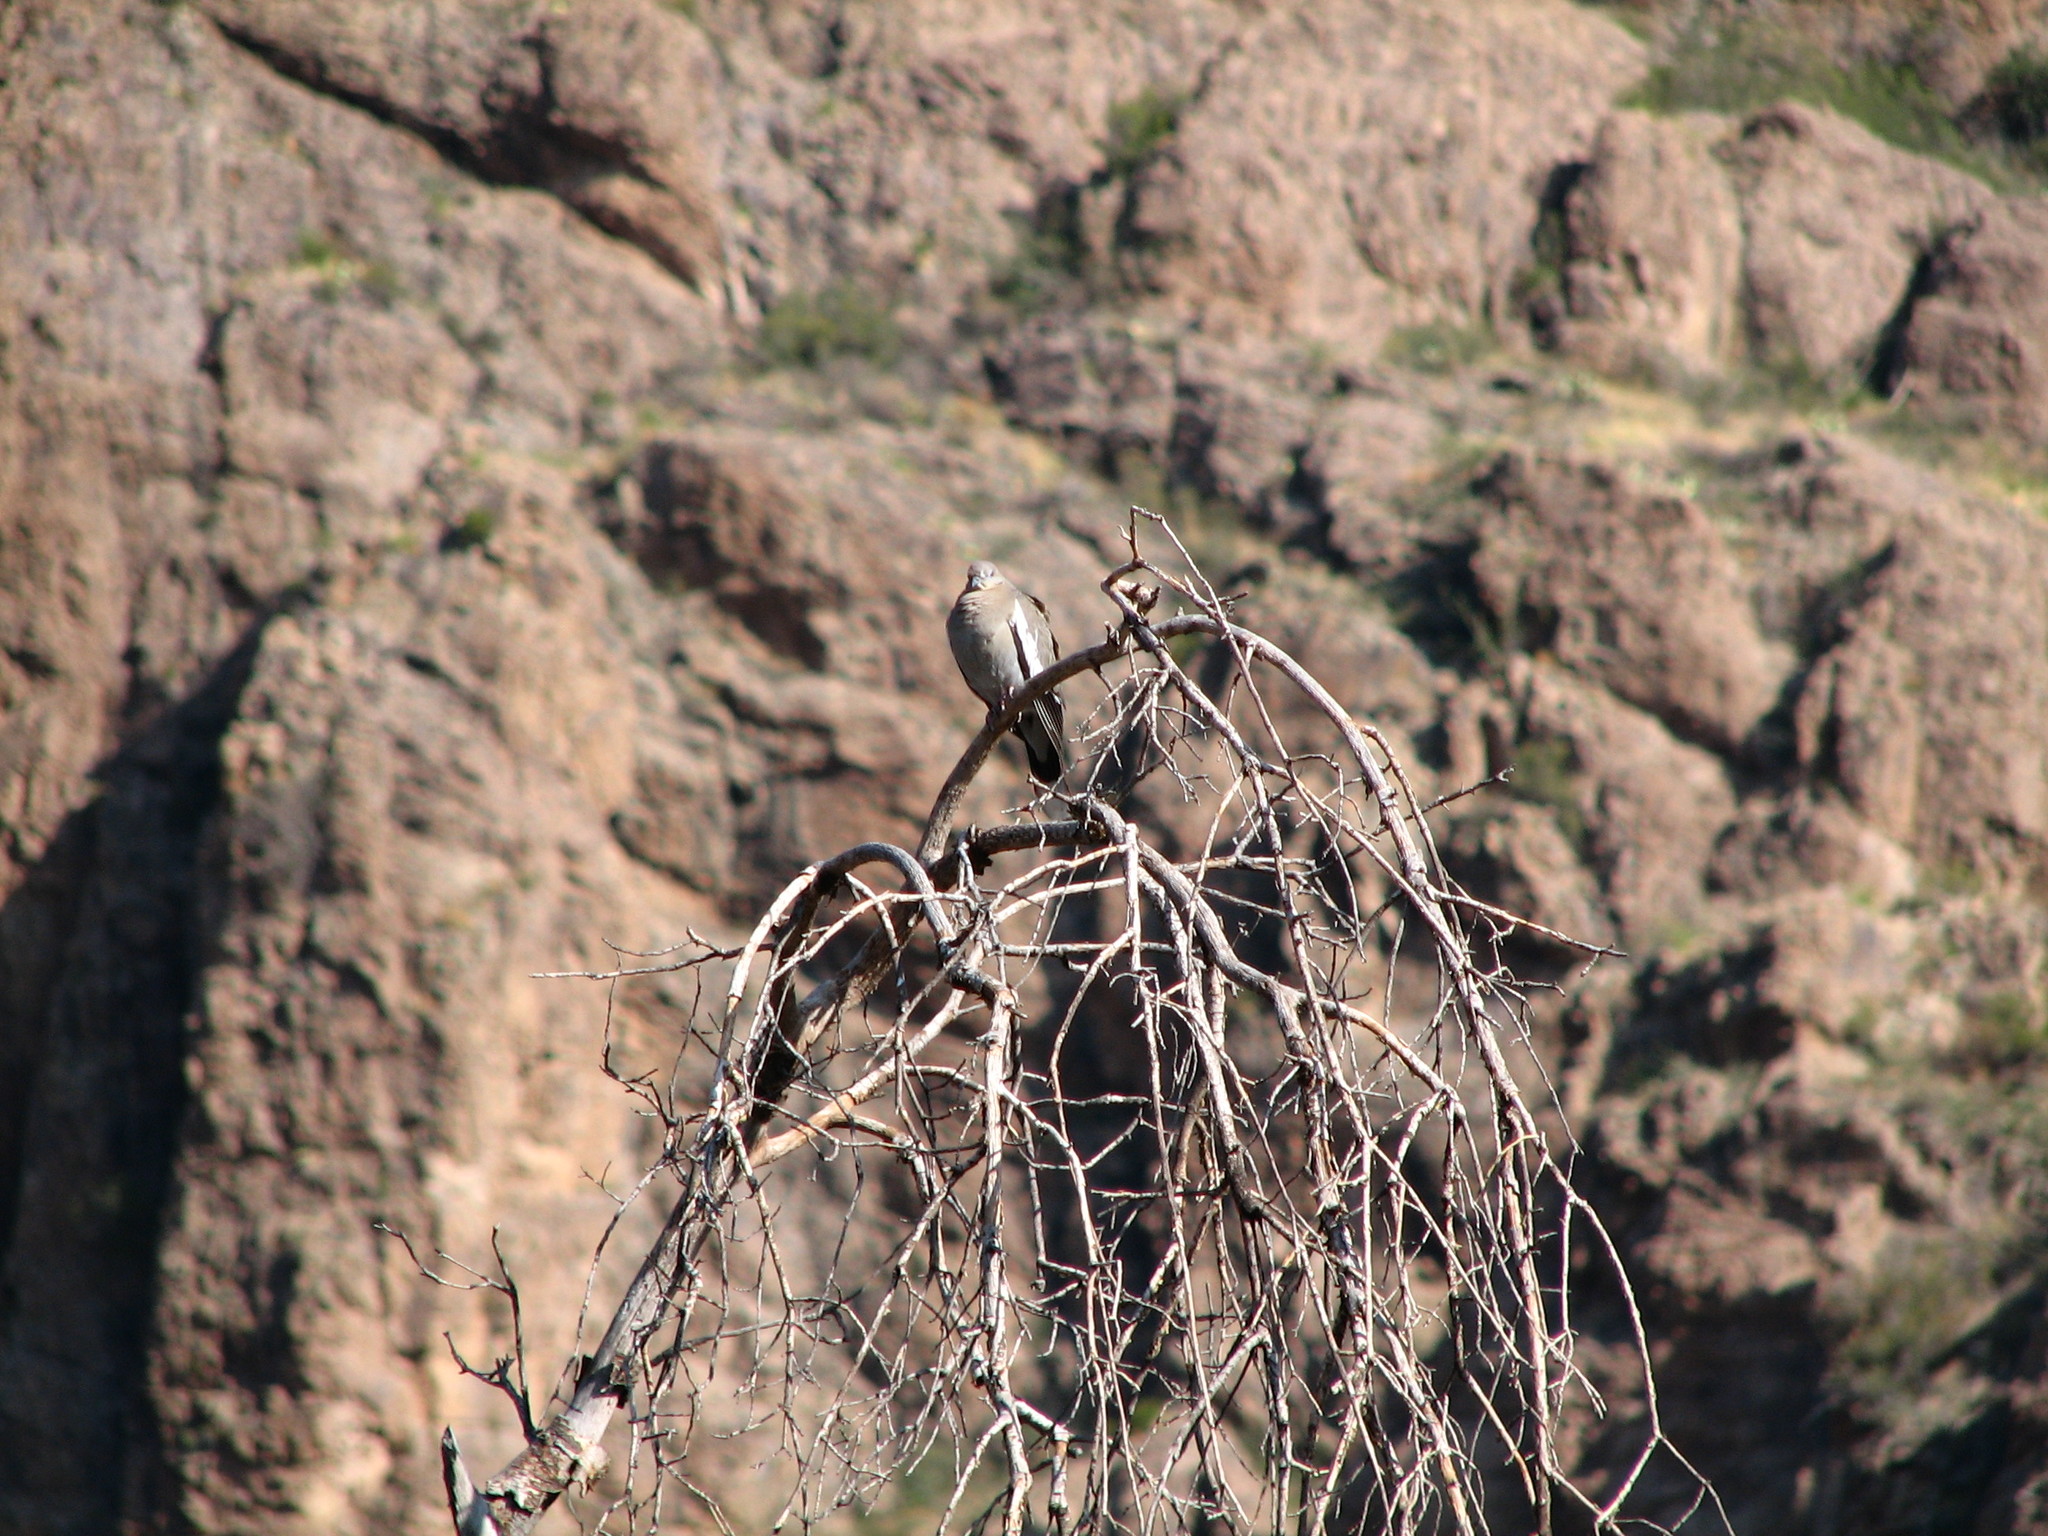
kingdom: Animalia
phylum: Chordata
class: Aves
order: Columbiformes
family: Columbidae
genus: Zenaida
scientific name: Zenaida asiatica
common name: White-winged dove
